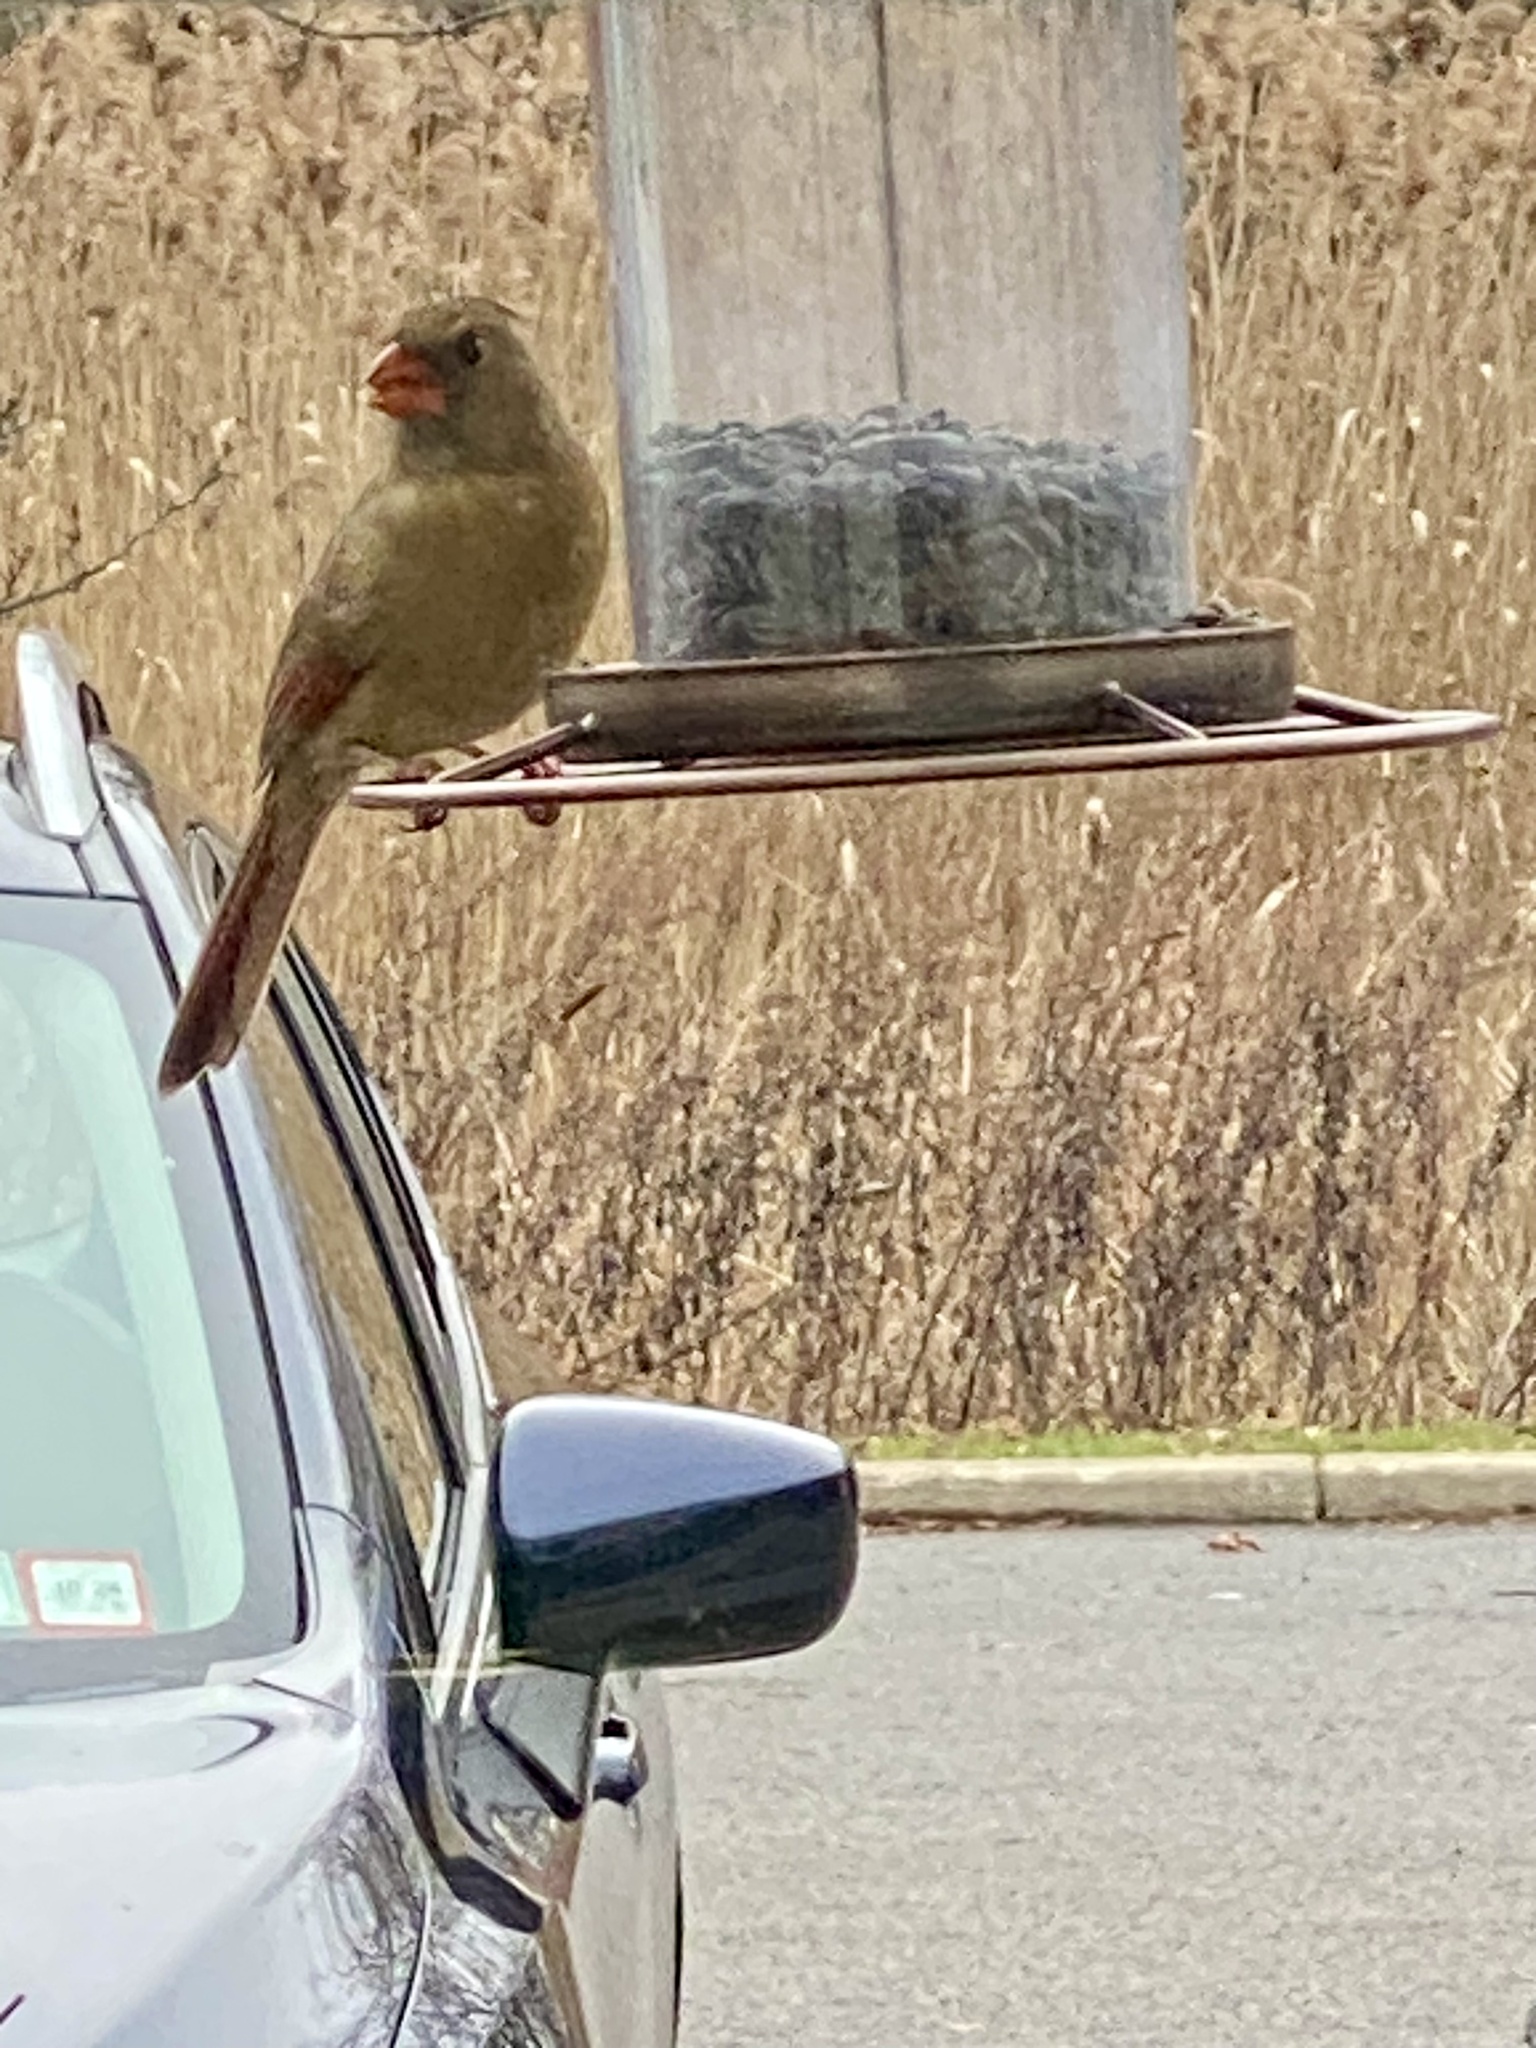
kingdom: Animalia
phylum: Chordata
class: Aves
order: Passeriformes
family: Cardinalidae
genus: Cardinalis
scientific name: Cardinalis cardinalis
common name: Northern cardinal
